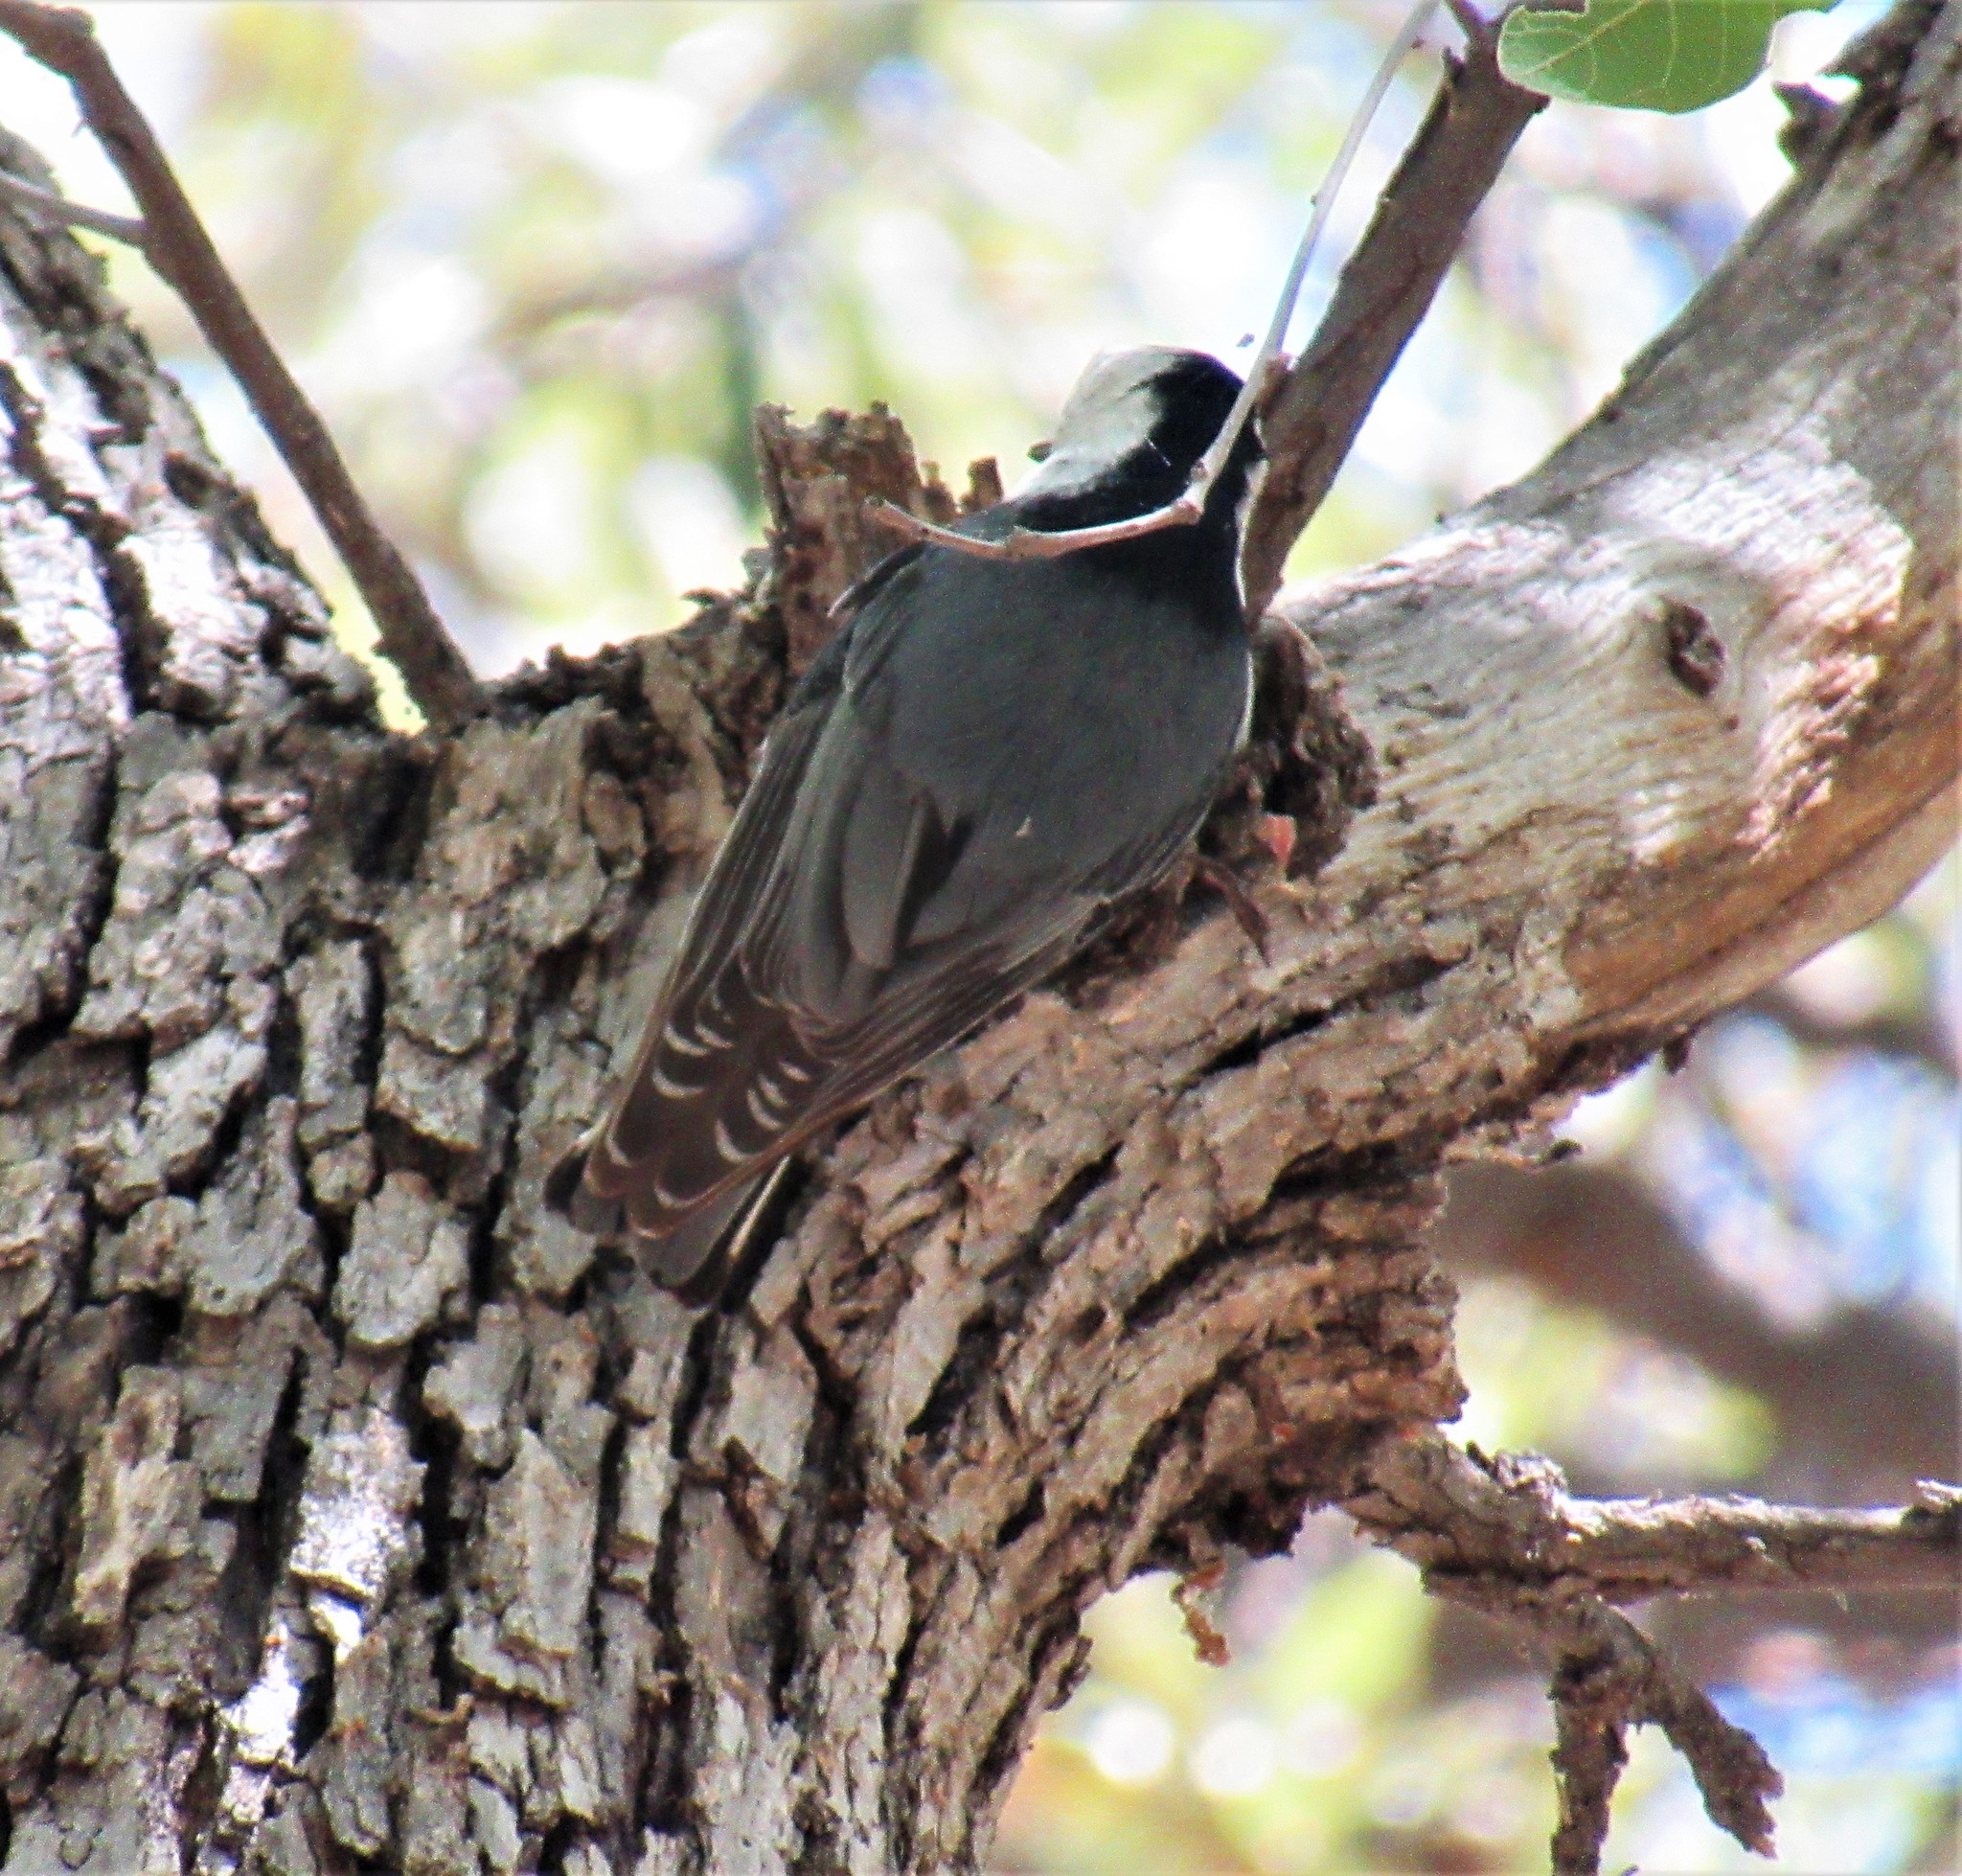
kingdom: Animalia
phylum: Chordata
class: Aves
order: Passeriformes
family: Sittidae
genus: Sitta
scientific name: Sitta carolinensis
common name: White-breasted nuthatch
